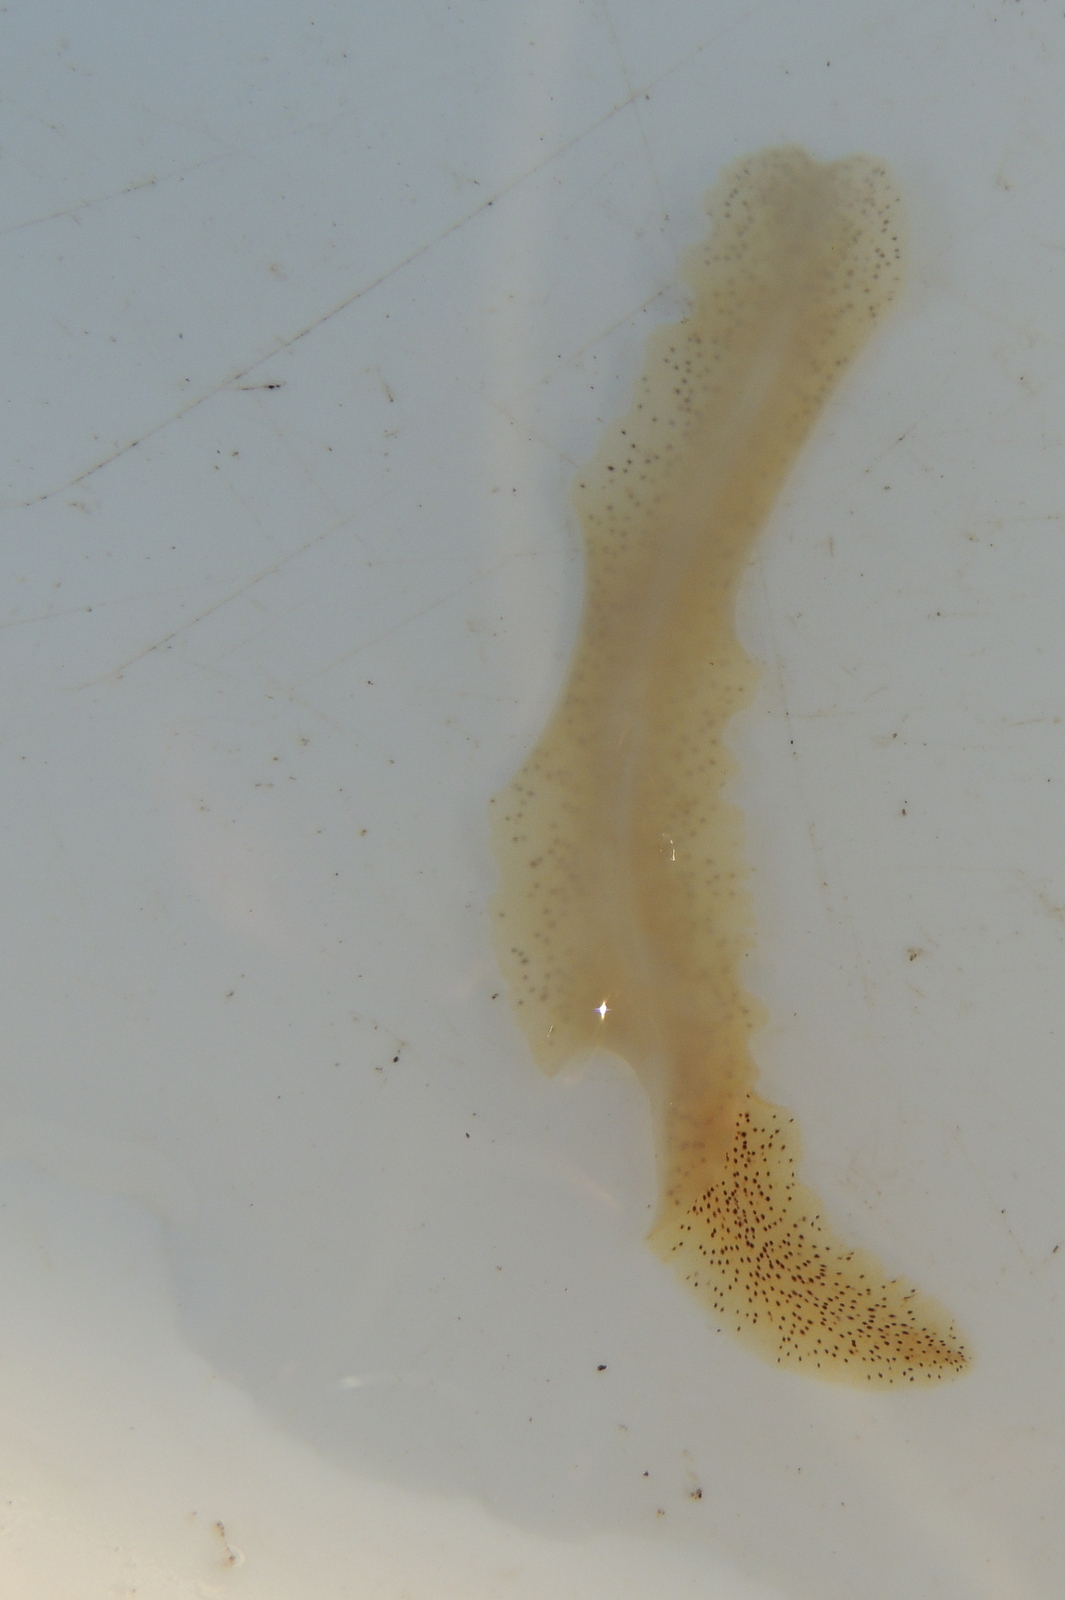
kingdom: Animalia
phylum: Platyhelminthes
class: Turbellaria
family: Prosthiostomidae
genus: Enchiridium
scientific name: Enchiridium punctatum
